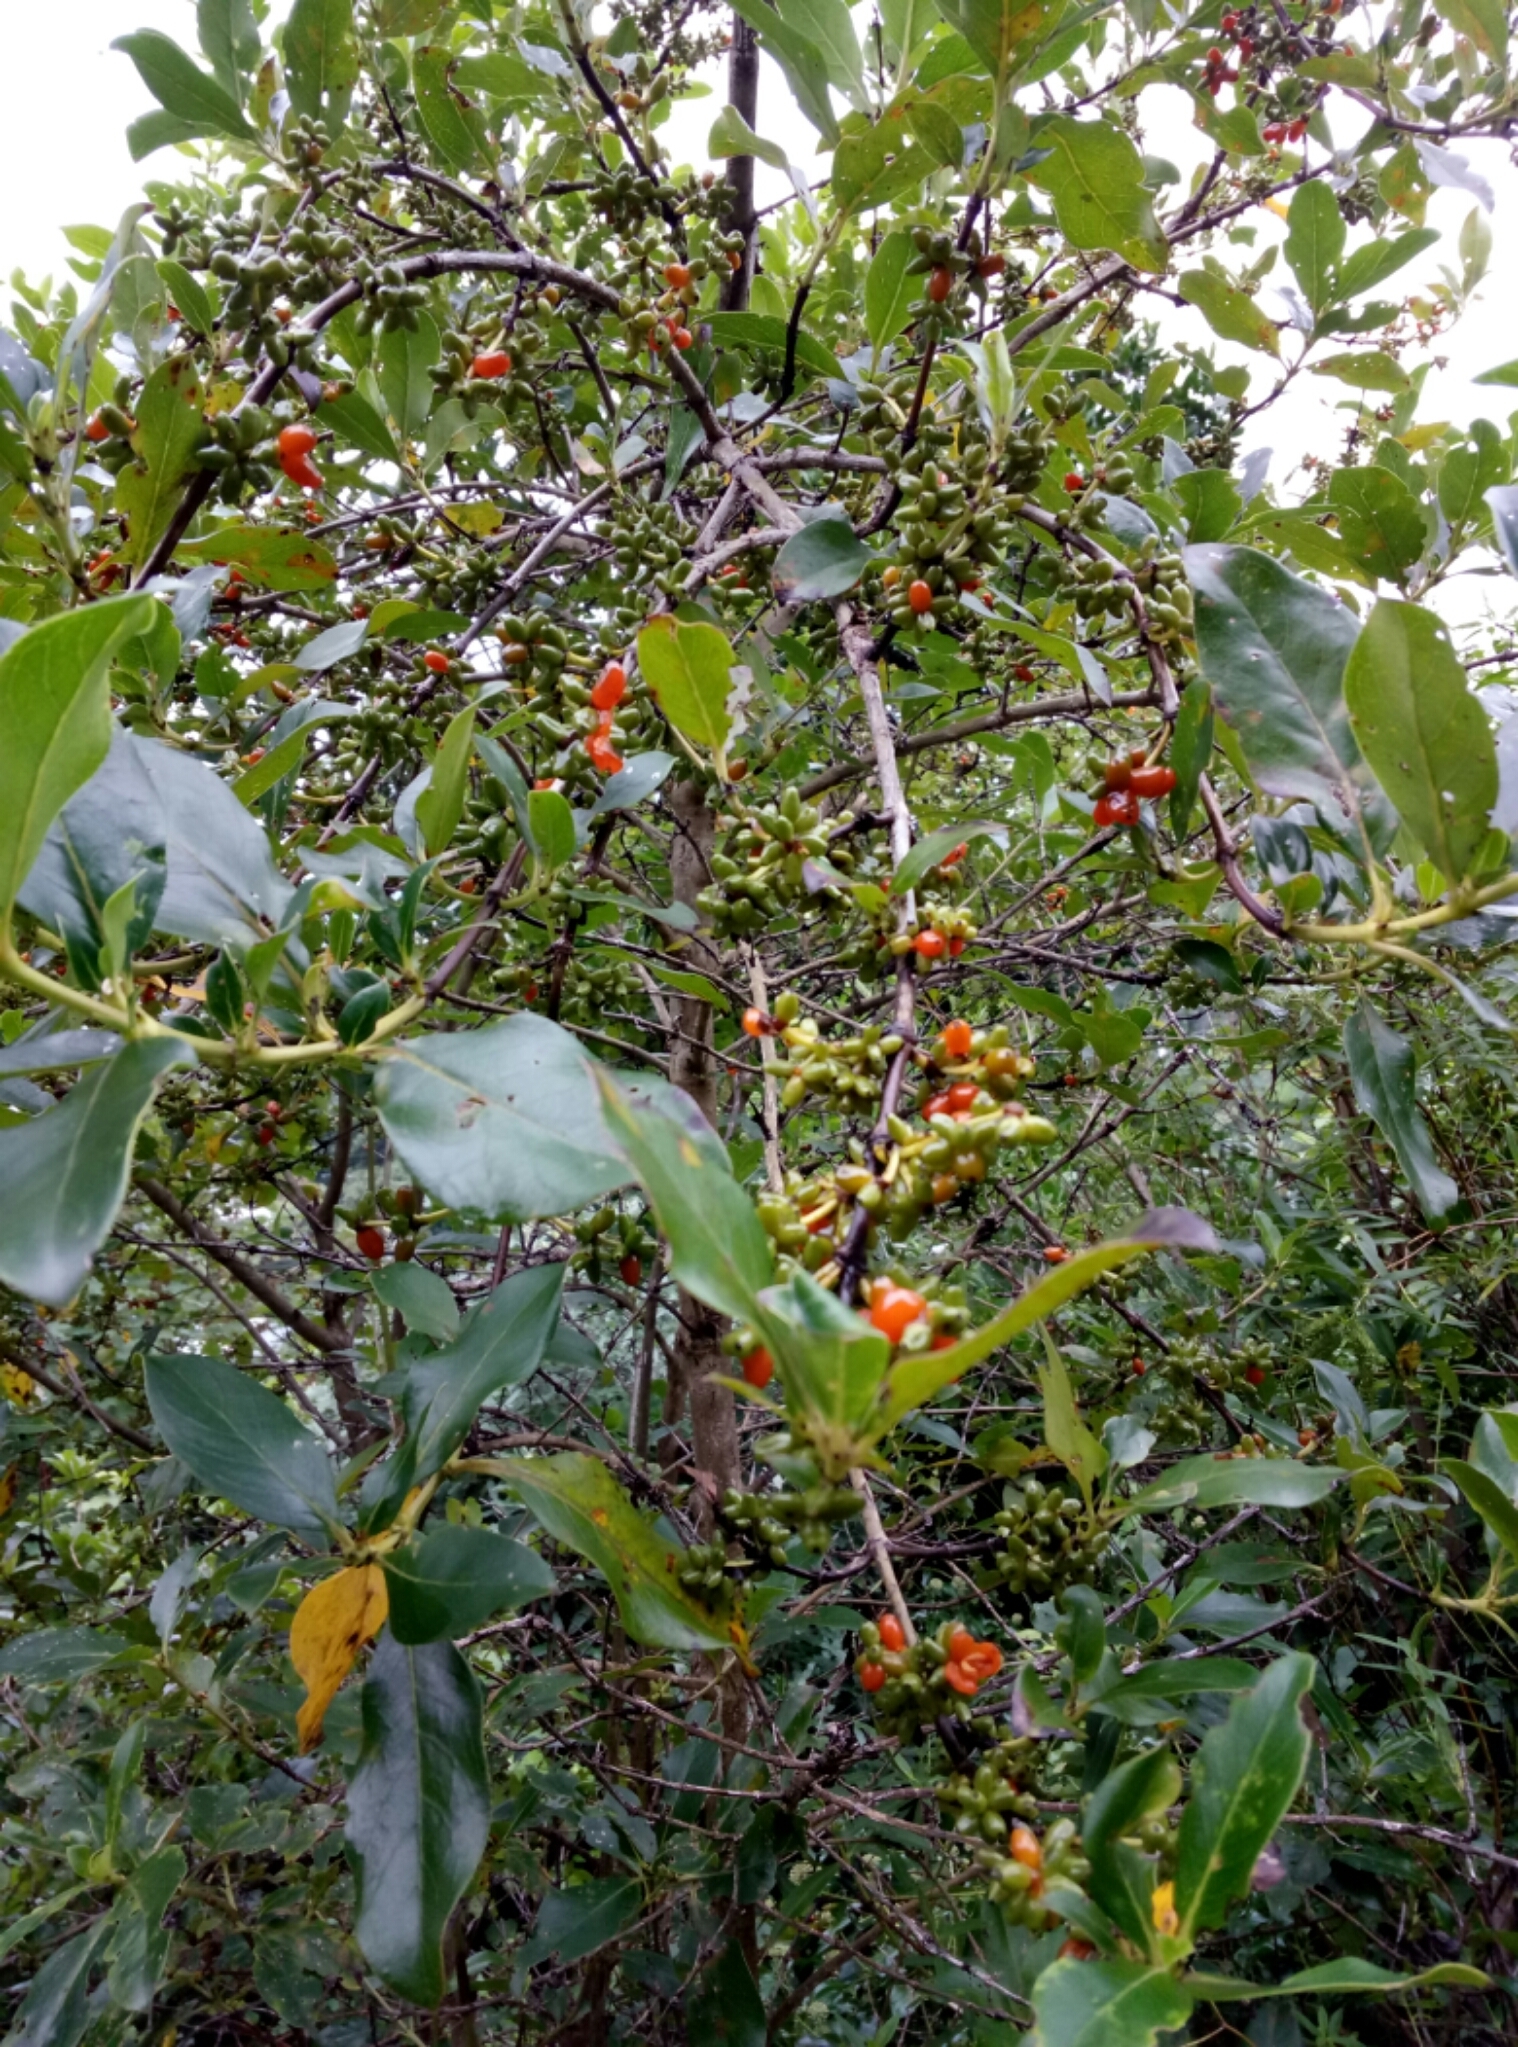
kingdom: Plantae
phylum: Tracheophyta
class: Magnoliopsida
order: Gentianales
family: Rubiaceae
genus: Coprosma
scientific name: Coprosma robusta
